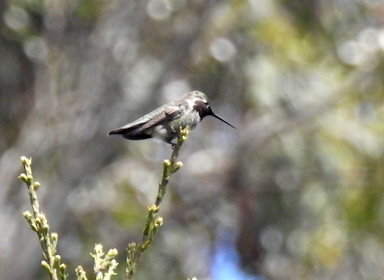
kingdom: Animalia
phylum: Chordata
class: Aves
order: Apodiformes
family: Trochilidae
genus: Calypte
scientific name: Calypte anna
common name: Anna's hummingbird
